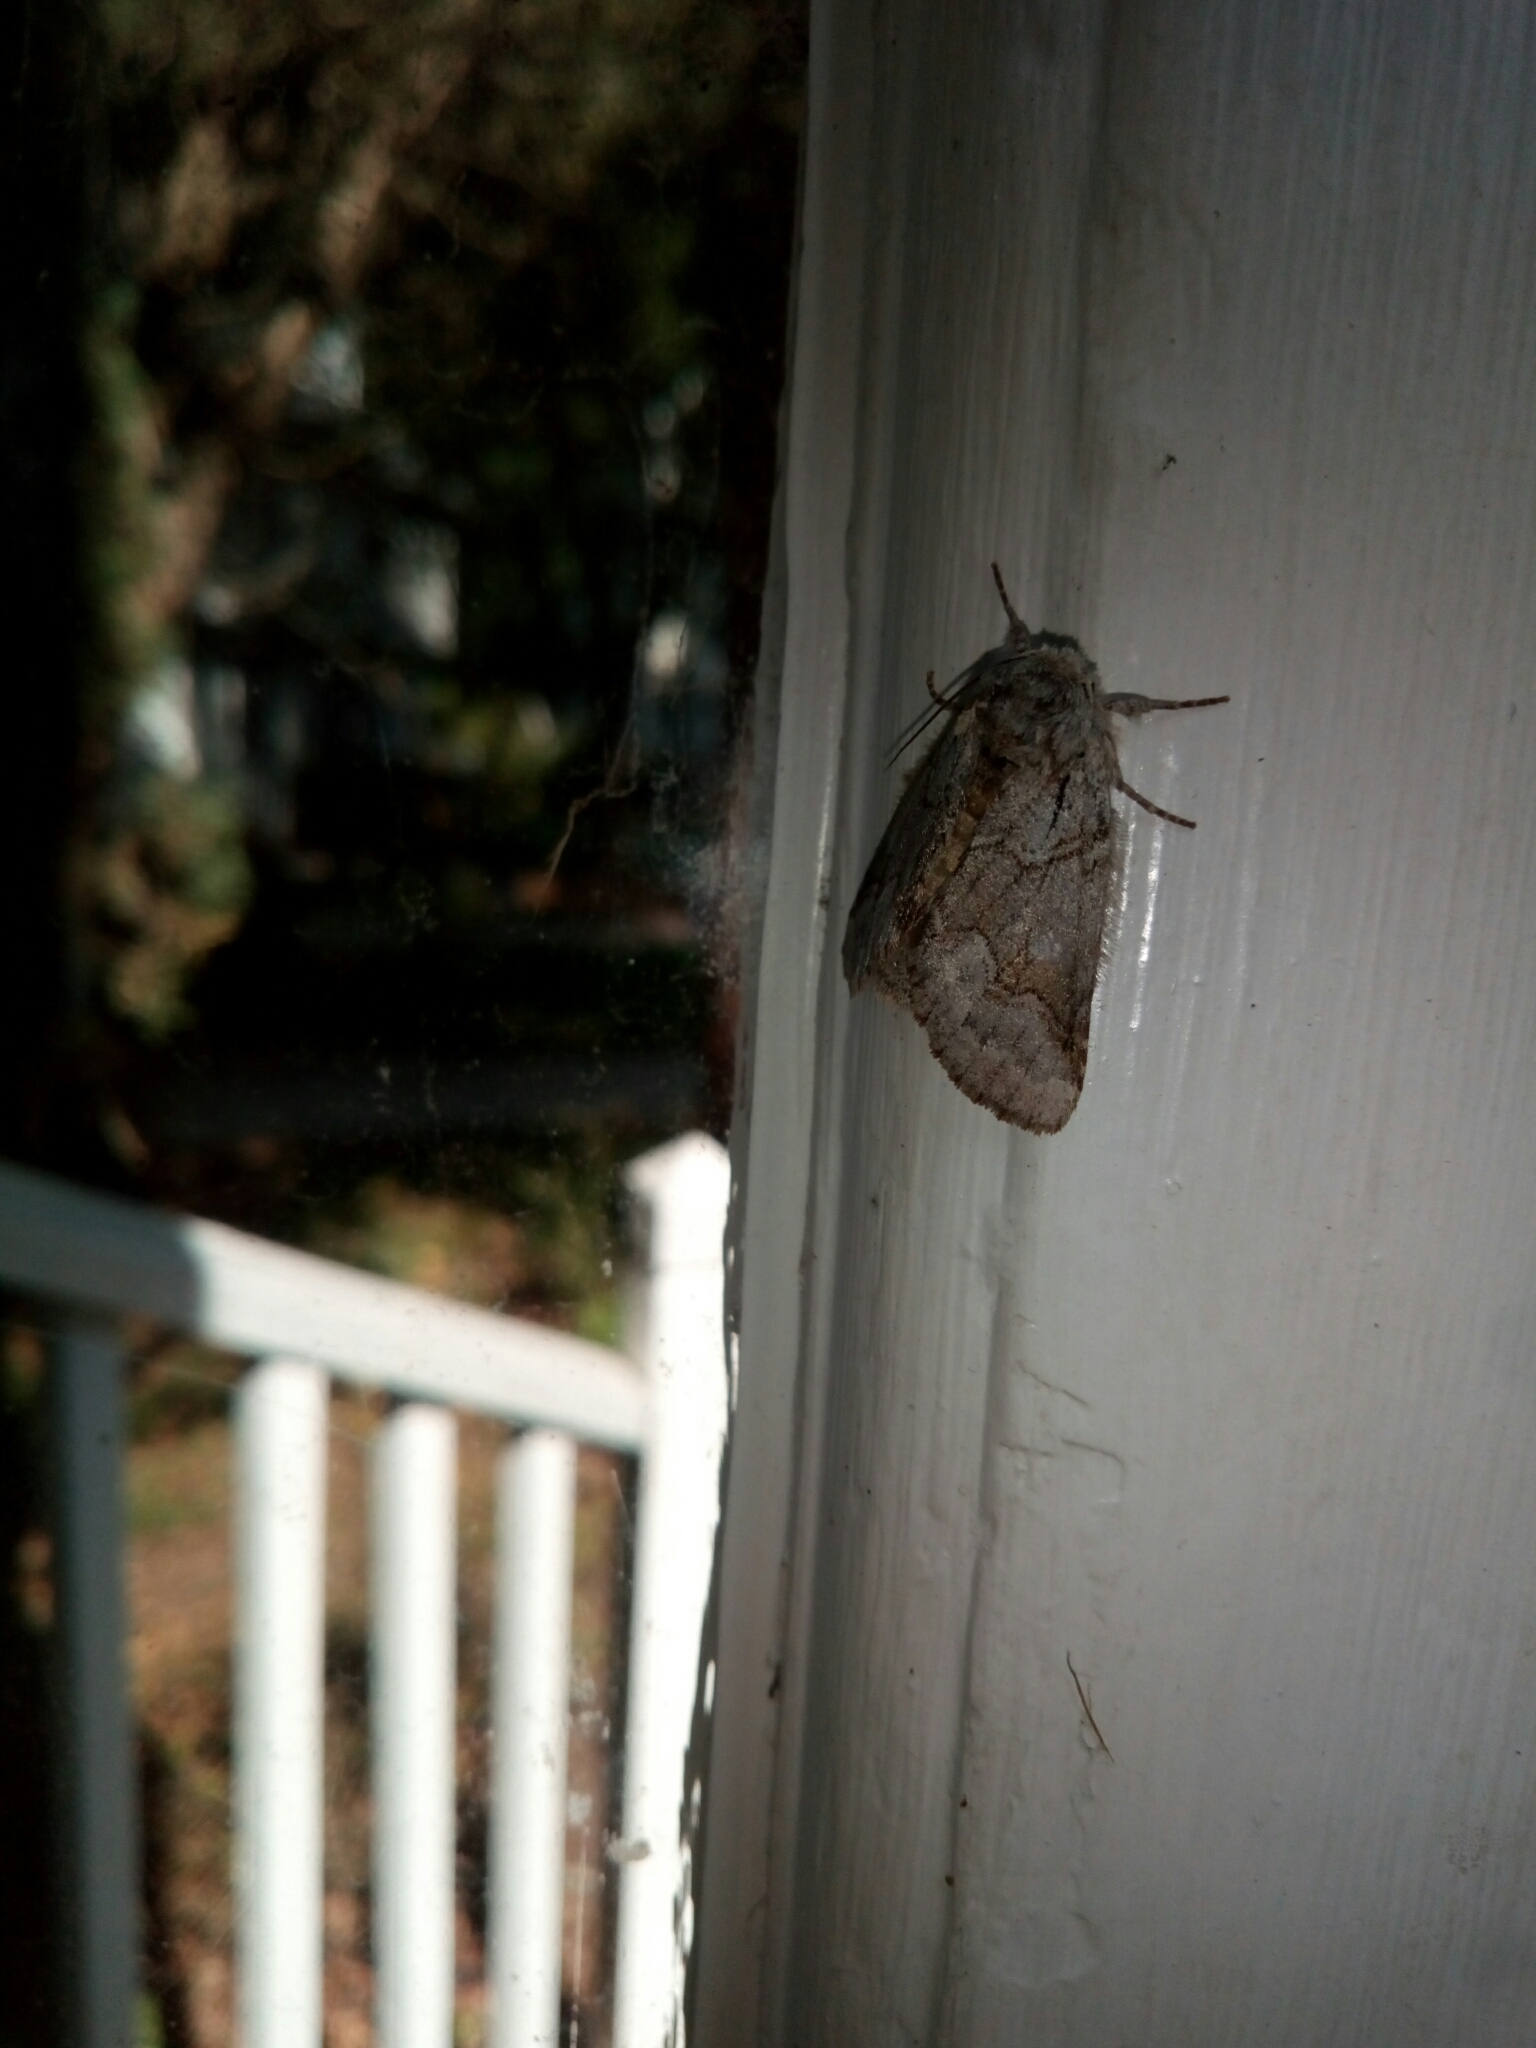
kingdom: Animalia
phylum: Arthropoda
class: Insecta
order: Lepidoptera
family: Notodontidae
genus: Lochmaeus
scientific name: Lochmaeus bilineata
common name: Double-lined prominent
